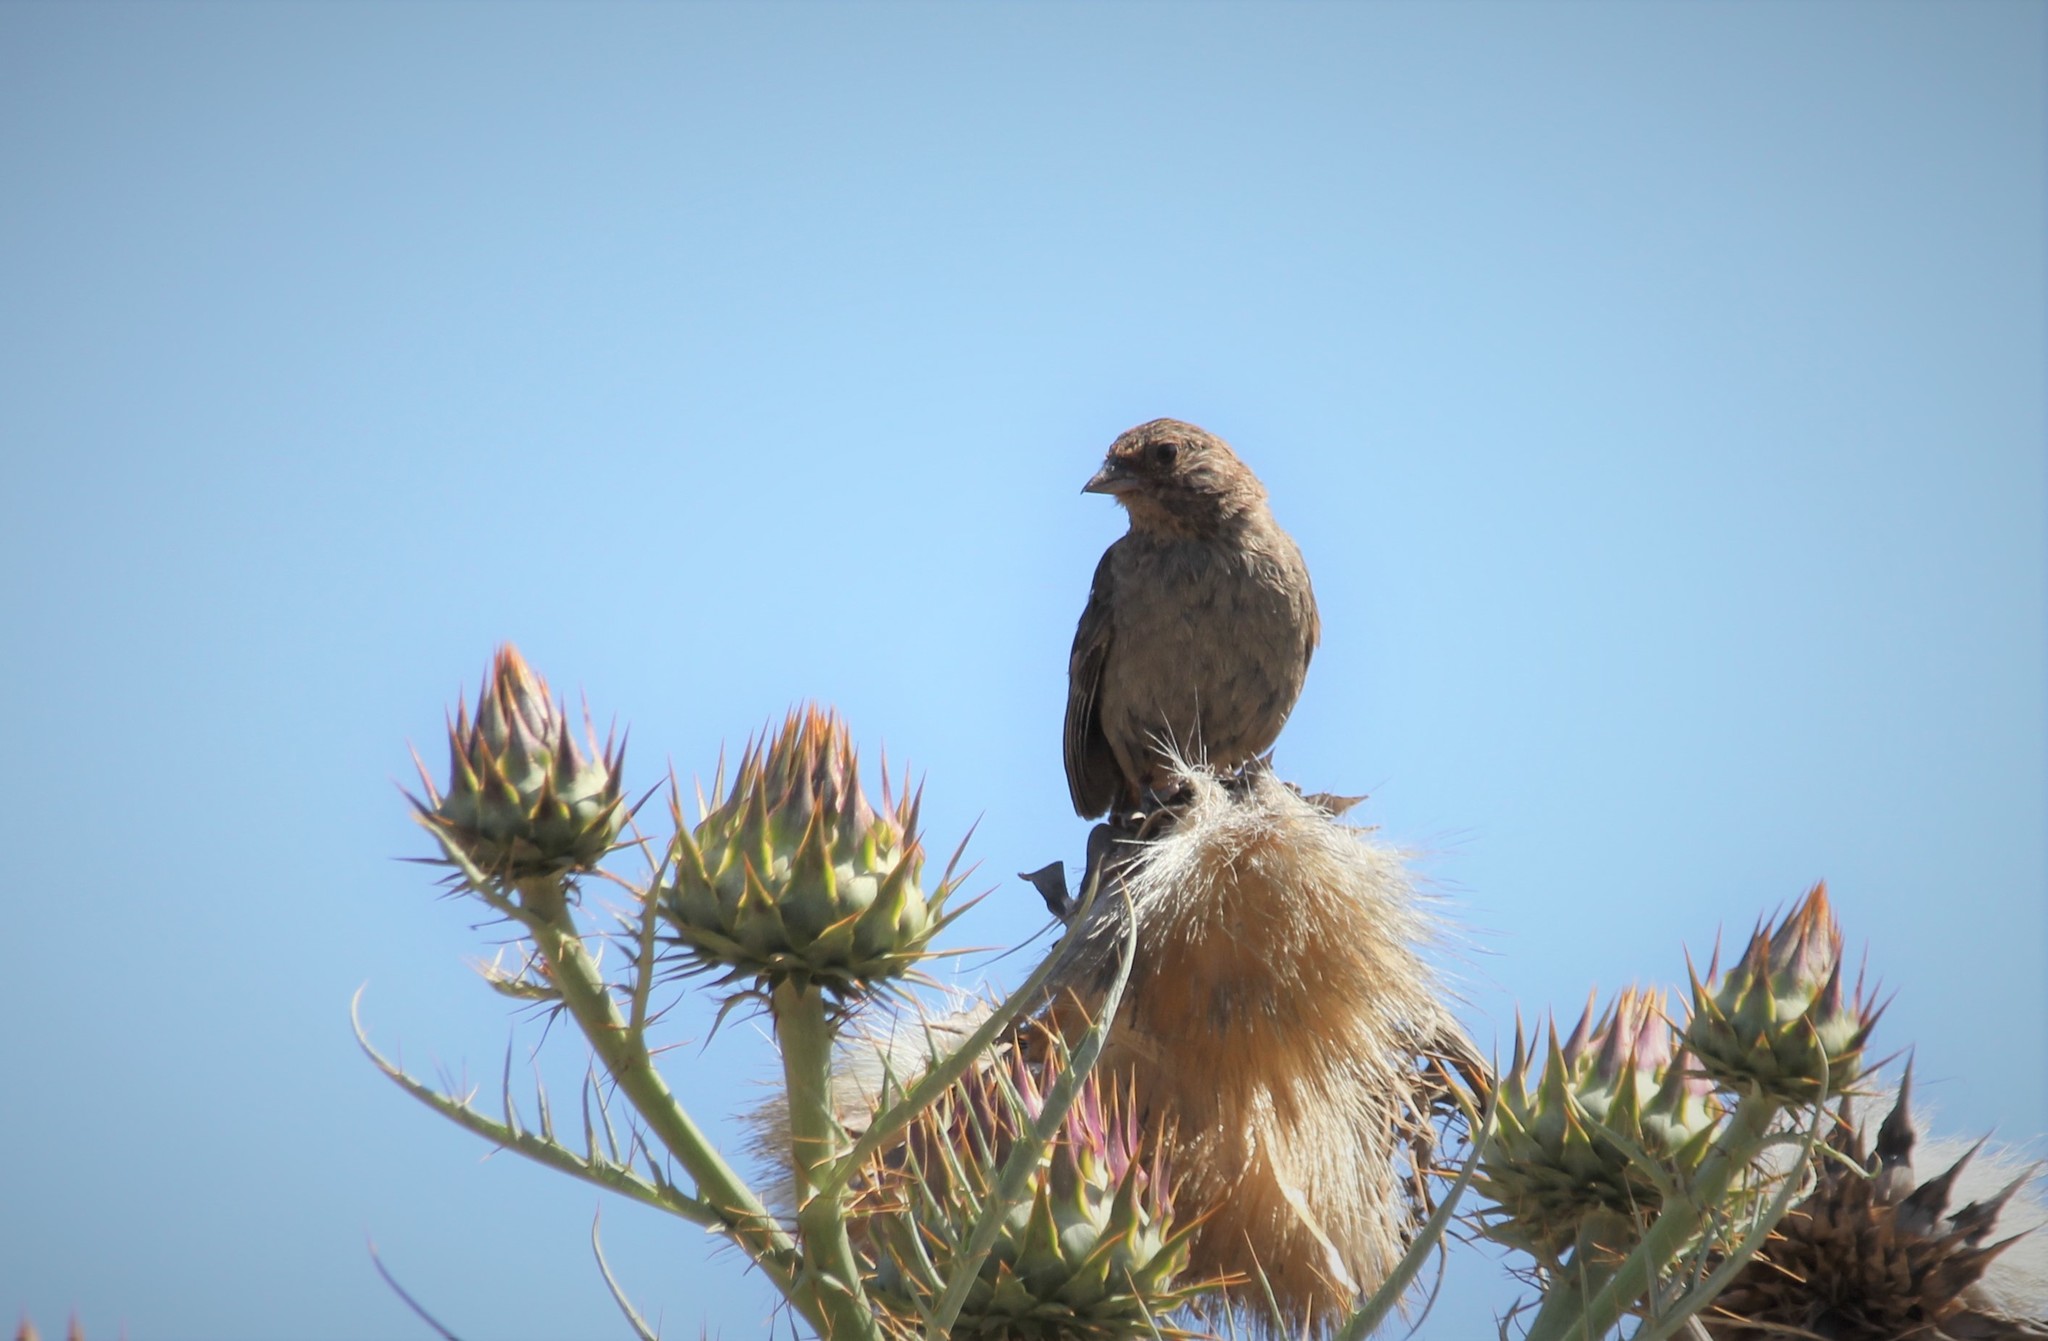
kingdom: Animalia
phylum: Chordata
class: Aves
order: Passeriformes
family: Passerellidae
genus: Melozone
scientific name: Melozone crissalis
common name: California towhee
